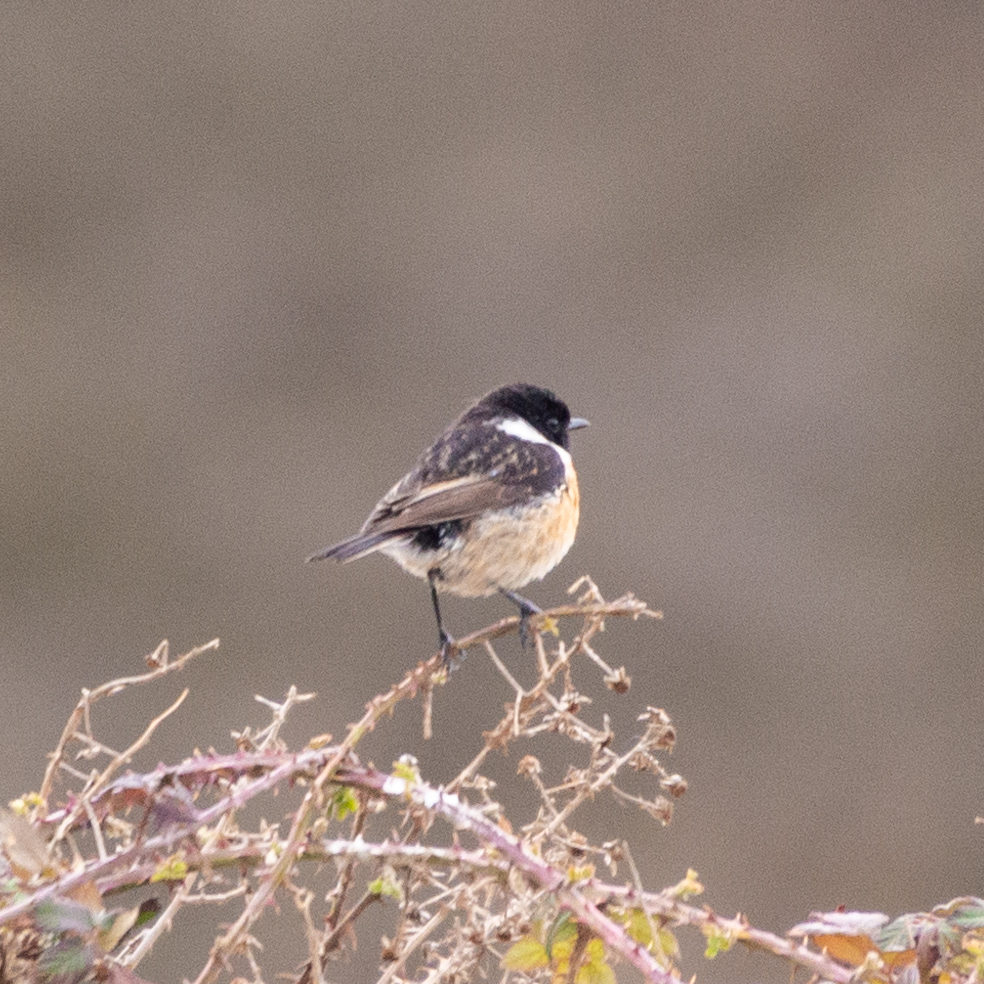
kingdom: Animalia
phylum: Chordata
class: Aves
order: Passeriformes
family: Muscicapidae
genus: Saxicola
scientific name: Saxicola rubicola
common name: European stonechat
